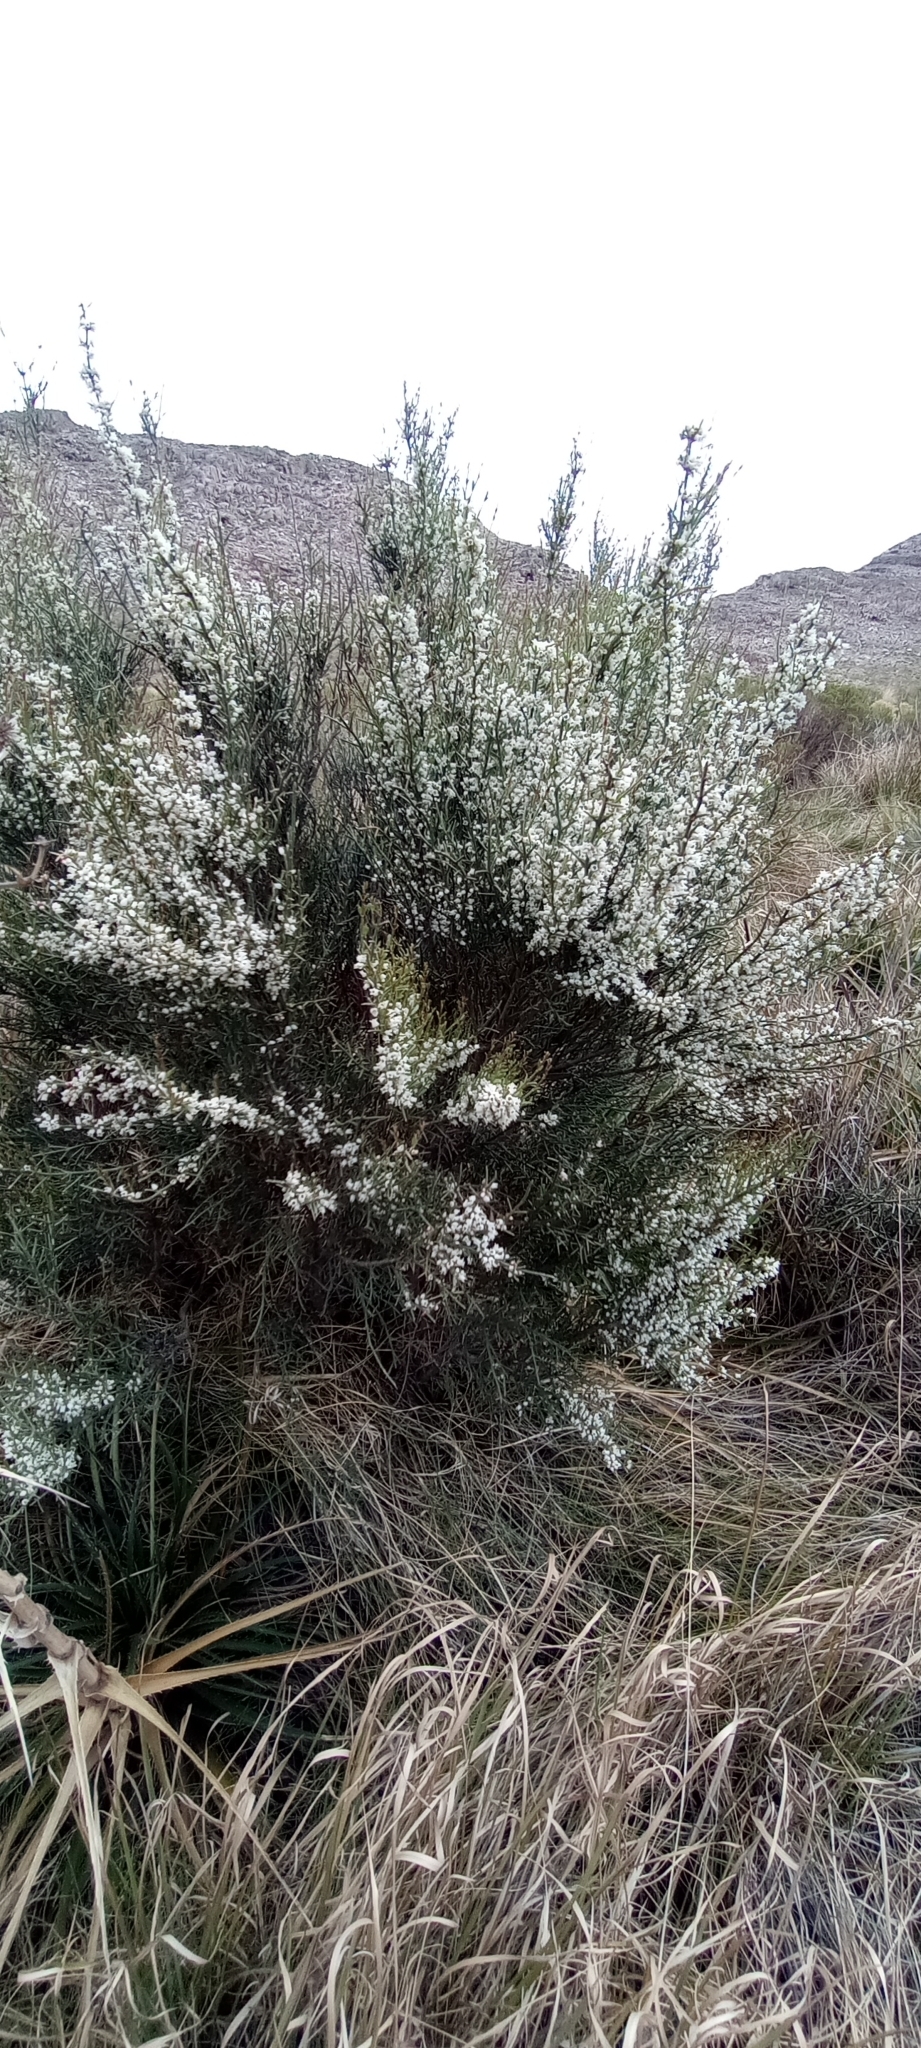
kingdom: Plantae
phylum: Tracheophyta
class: Magnoliopsida
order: Rosales
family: Rhamnaceae
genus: Discaria
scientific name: Discaria americana
